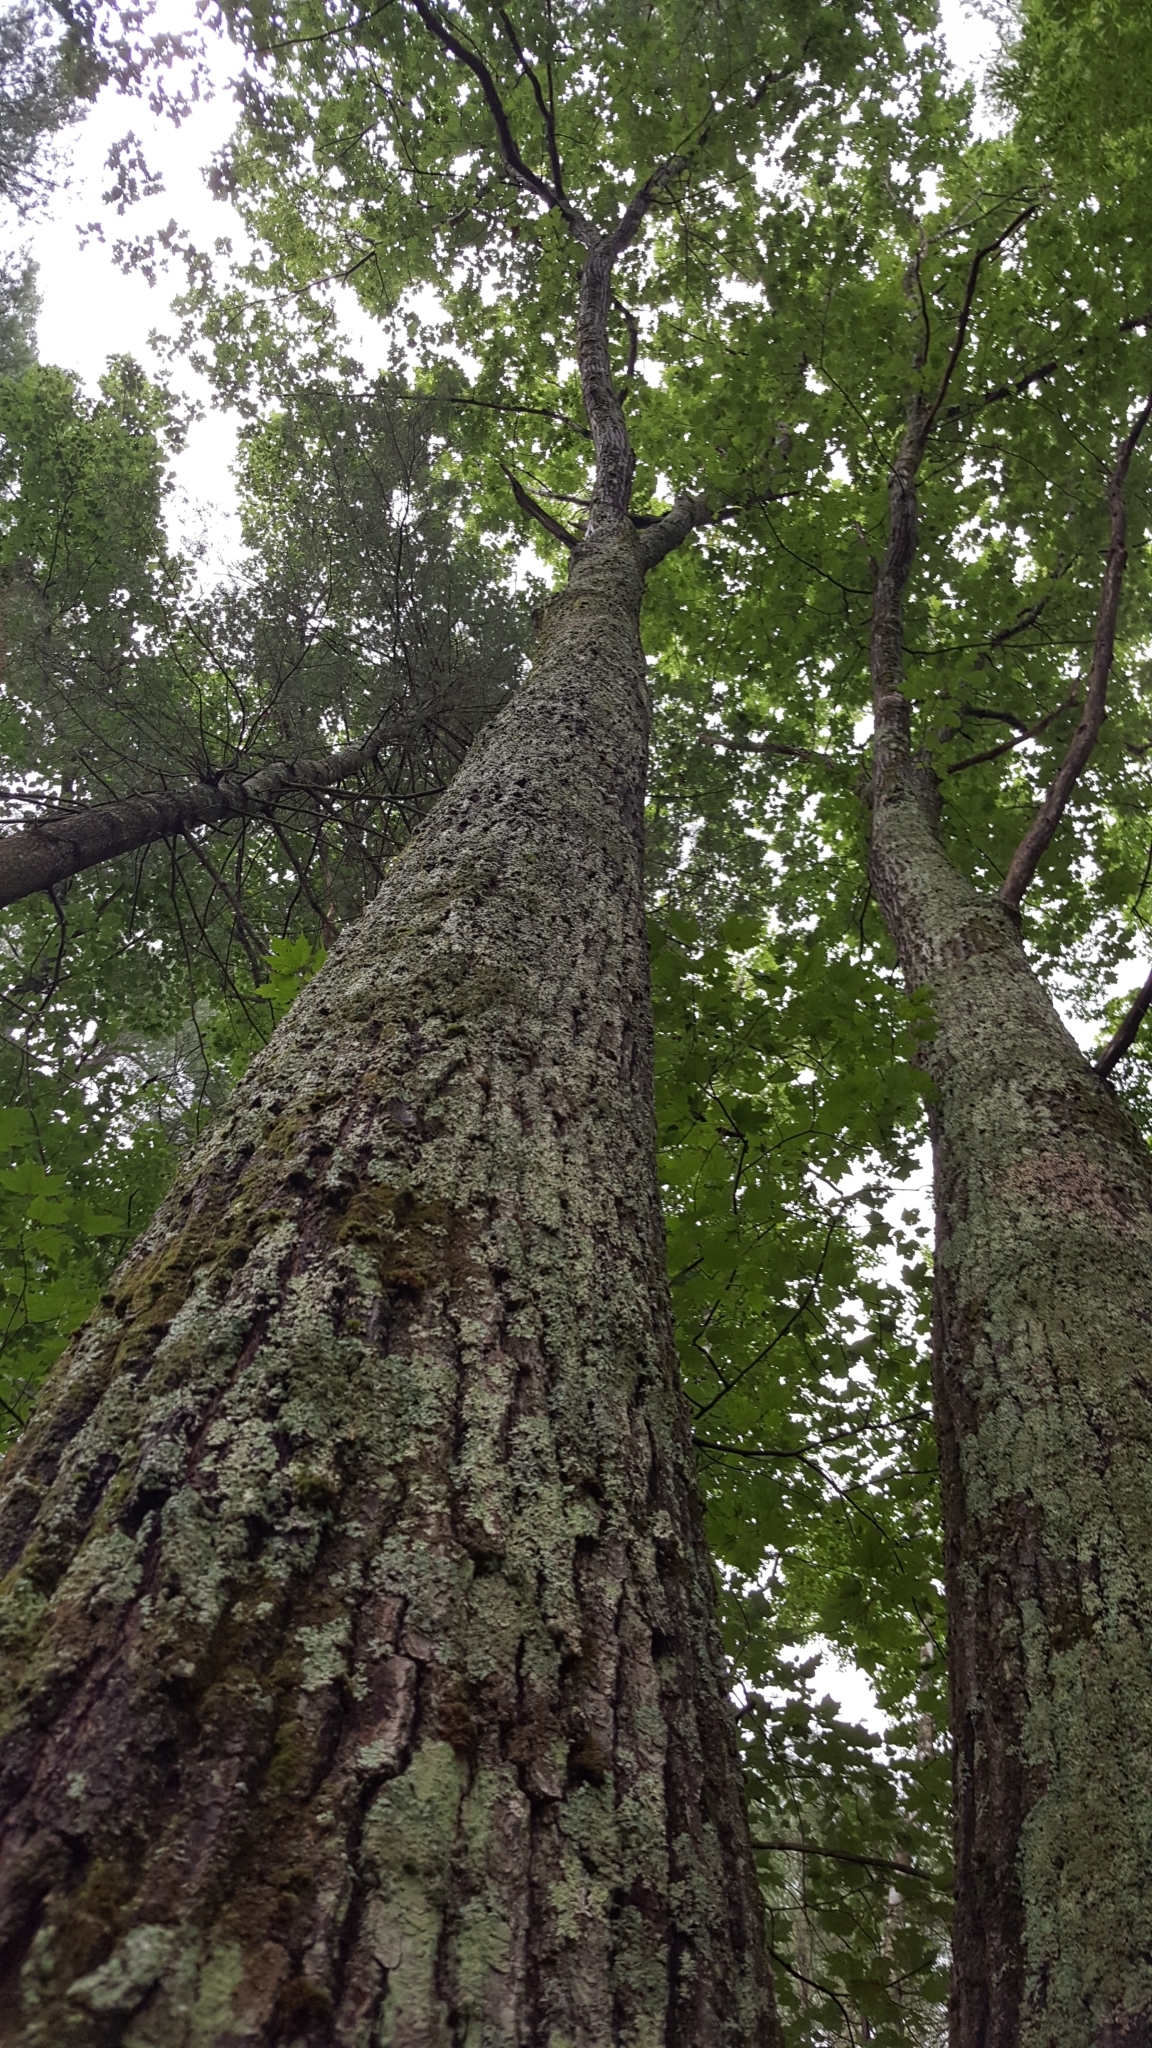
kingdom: Plantae
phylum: Tracheophyta
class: Magnoliopsida
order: Fagales
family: Fagaceae
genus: Quercus
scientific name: Quercus rubra
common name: Red oak
